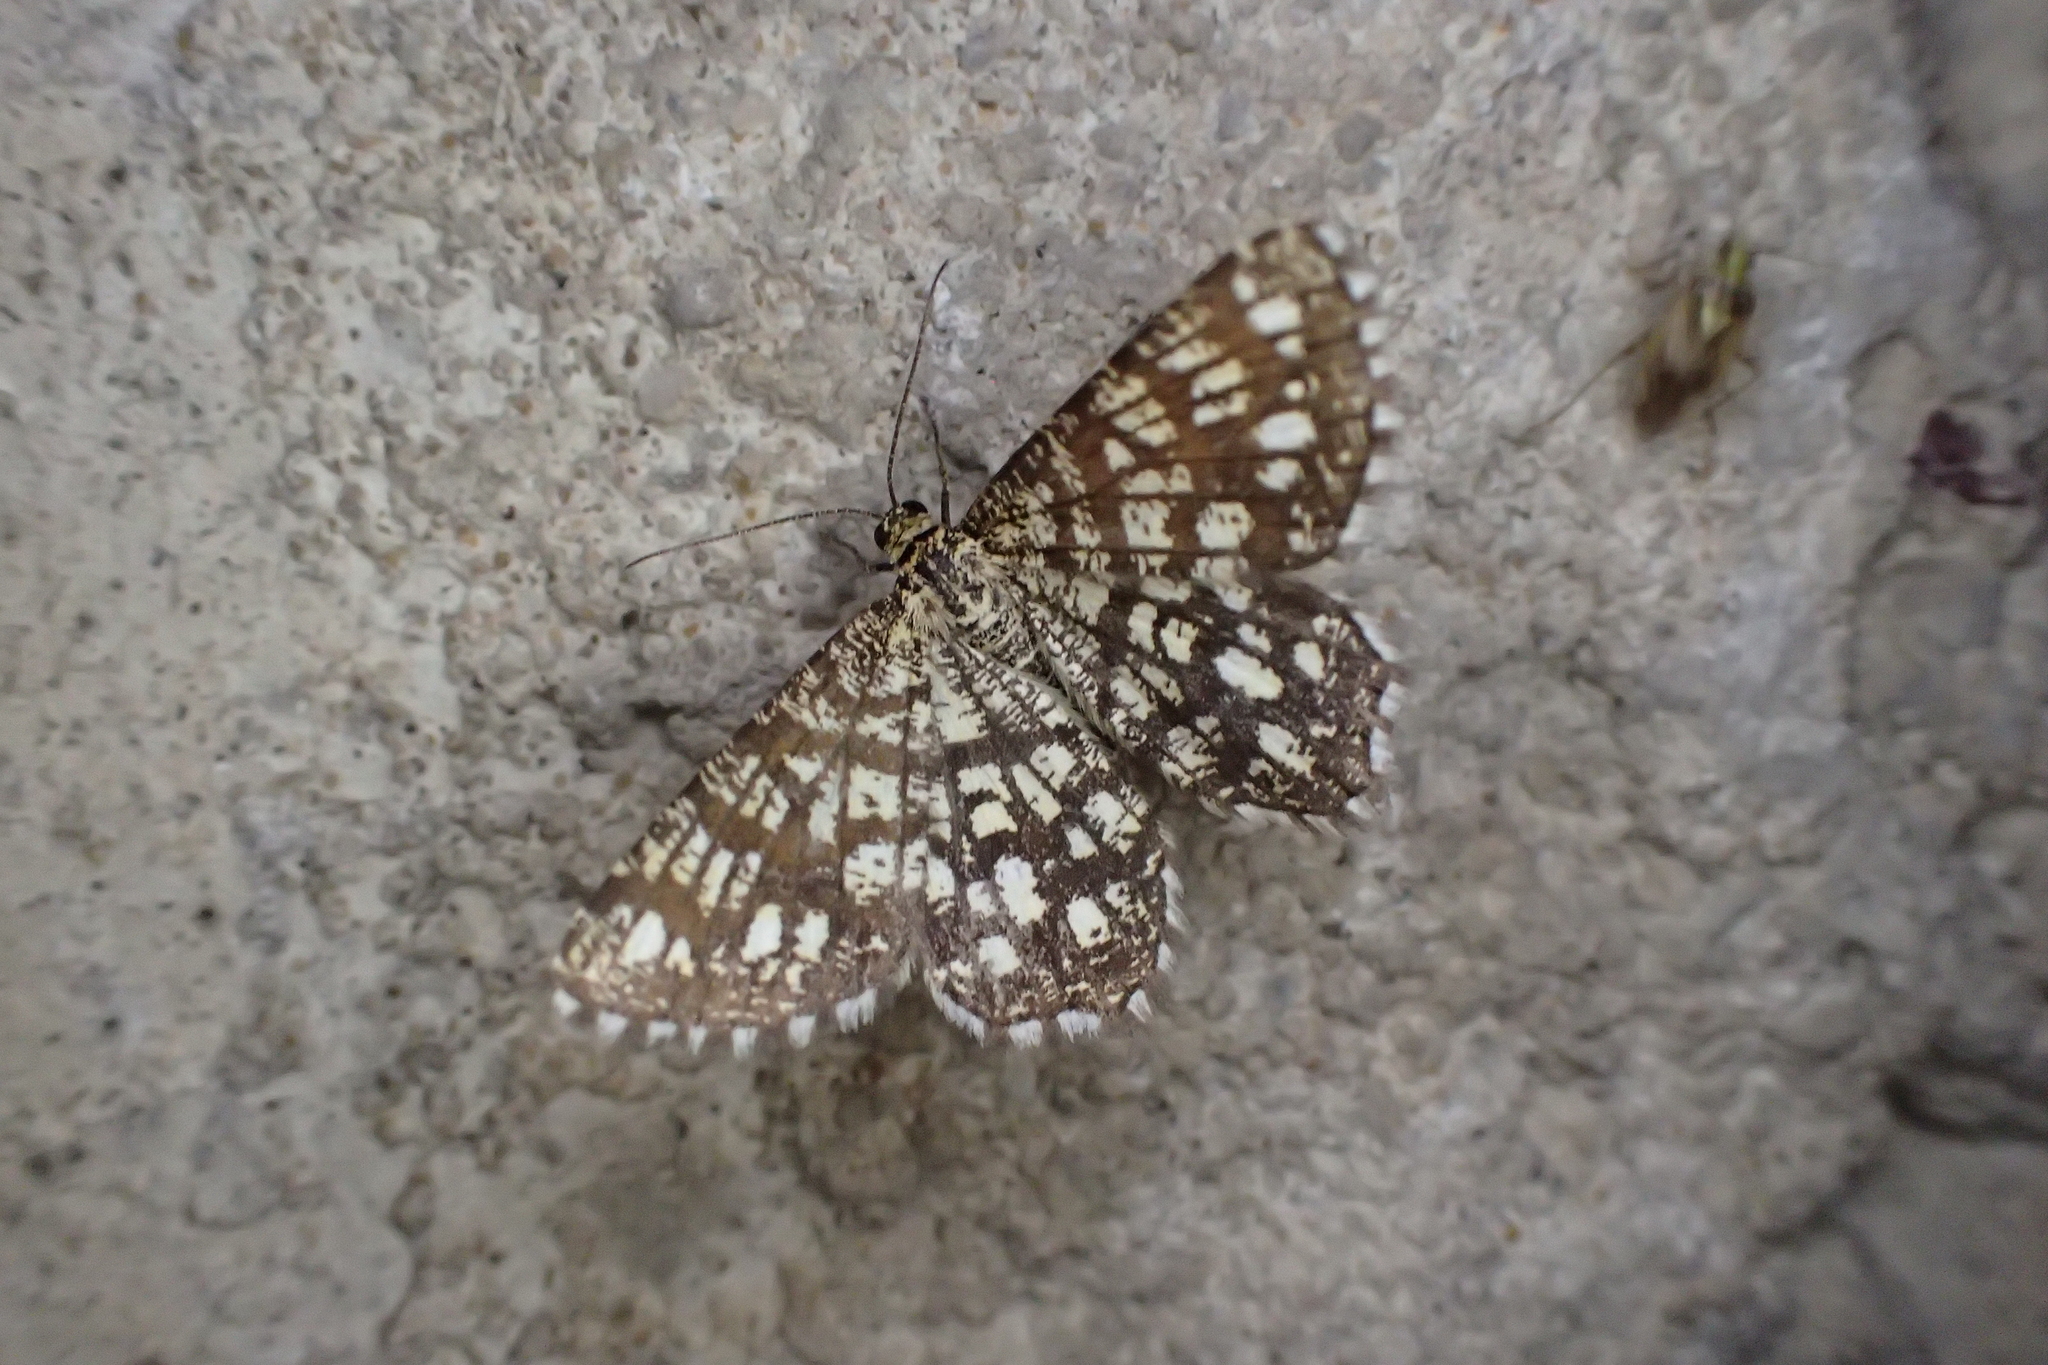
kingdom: Animalia
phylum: Arthropoda
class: Insecta
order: Lepidoptera
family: Geometridae
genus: Chiasmia
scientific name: Chiasmia clathrata
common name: Latticed heath
